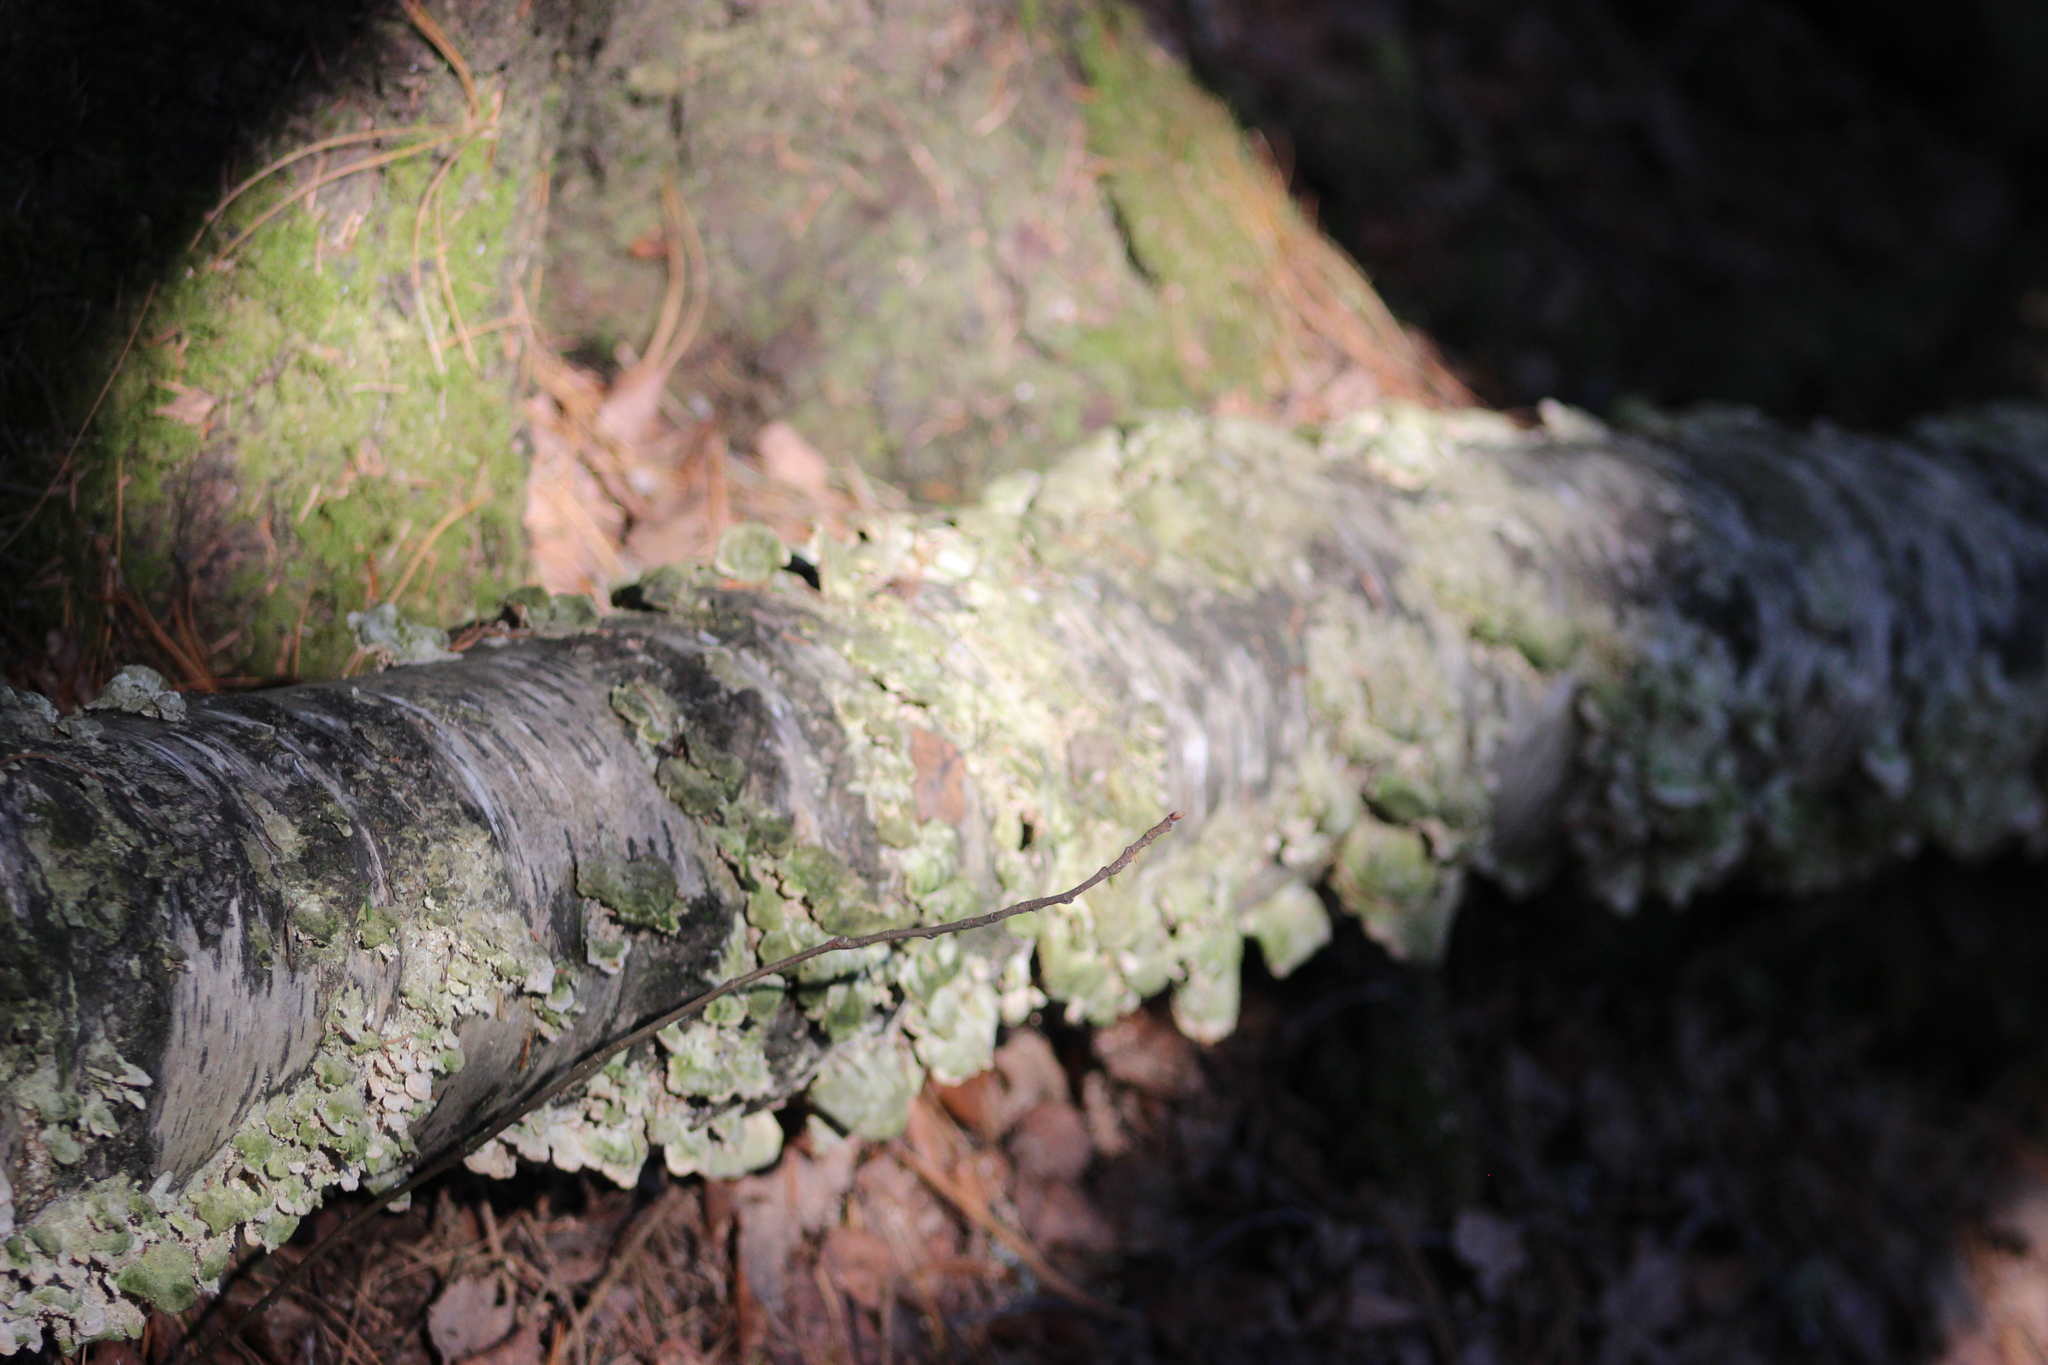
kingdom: Fungi
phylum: Basidiomycota
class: Agaricomycetes
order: Hymenochaetales
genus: Trichaptum
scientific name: Trichaptum biforme
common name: Violet-toothed polypore
